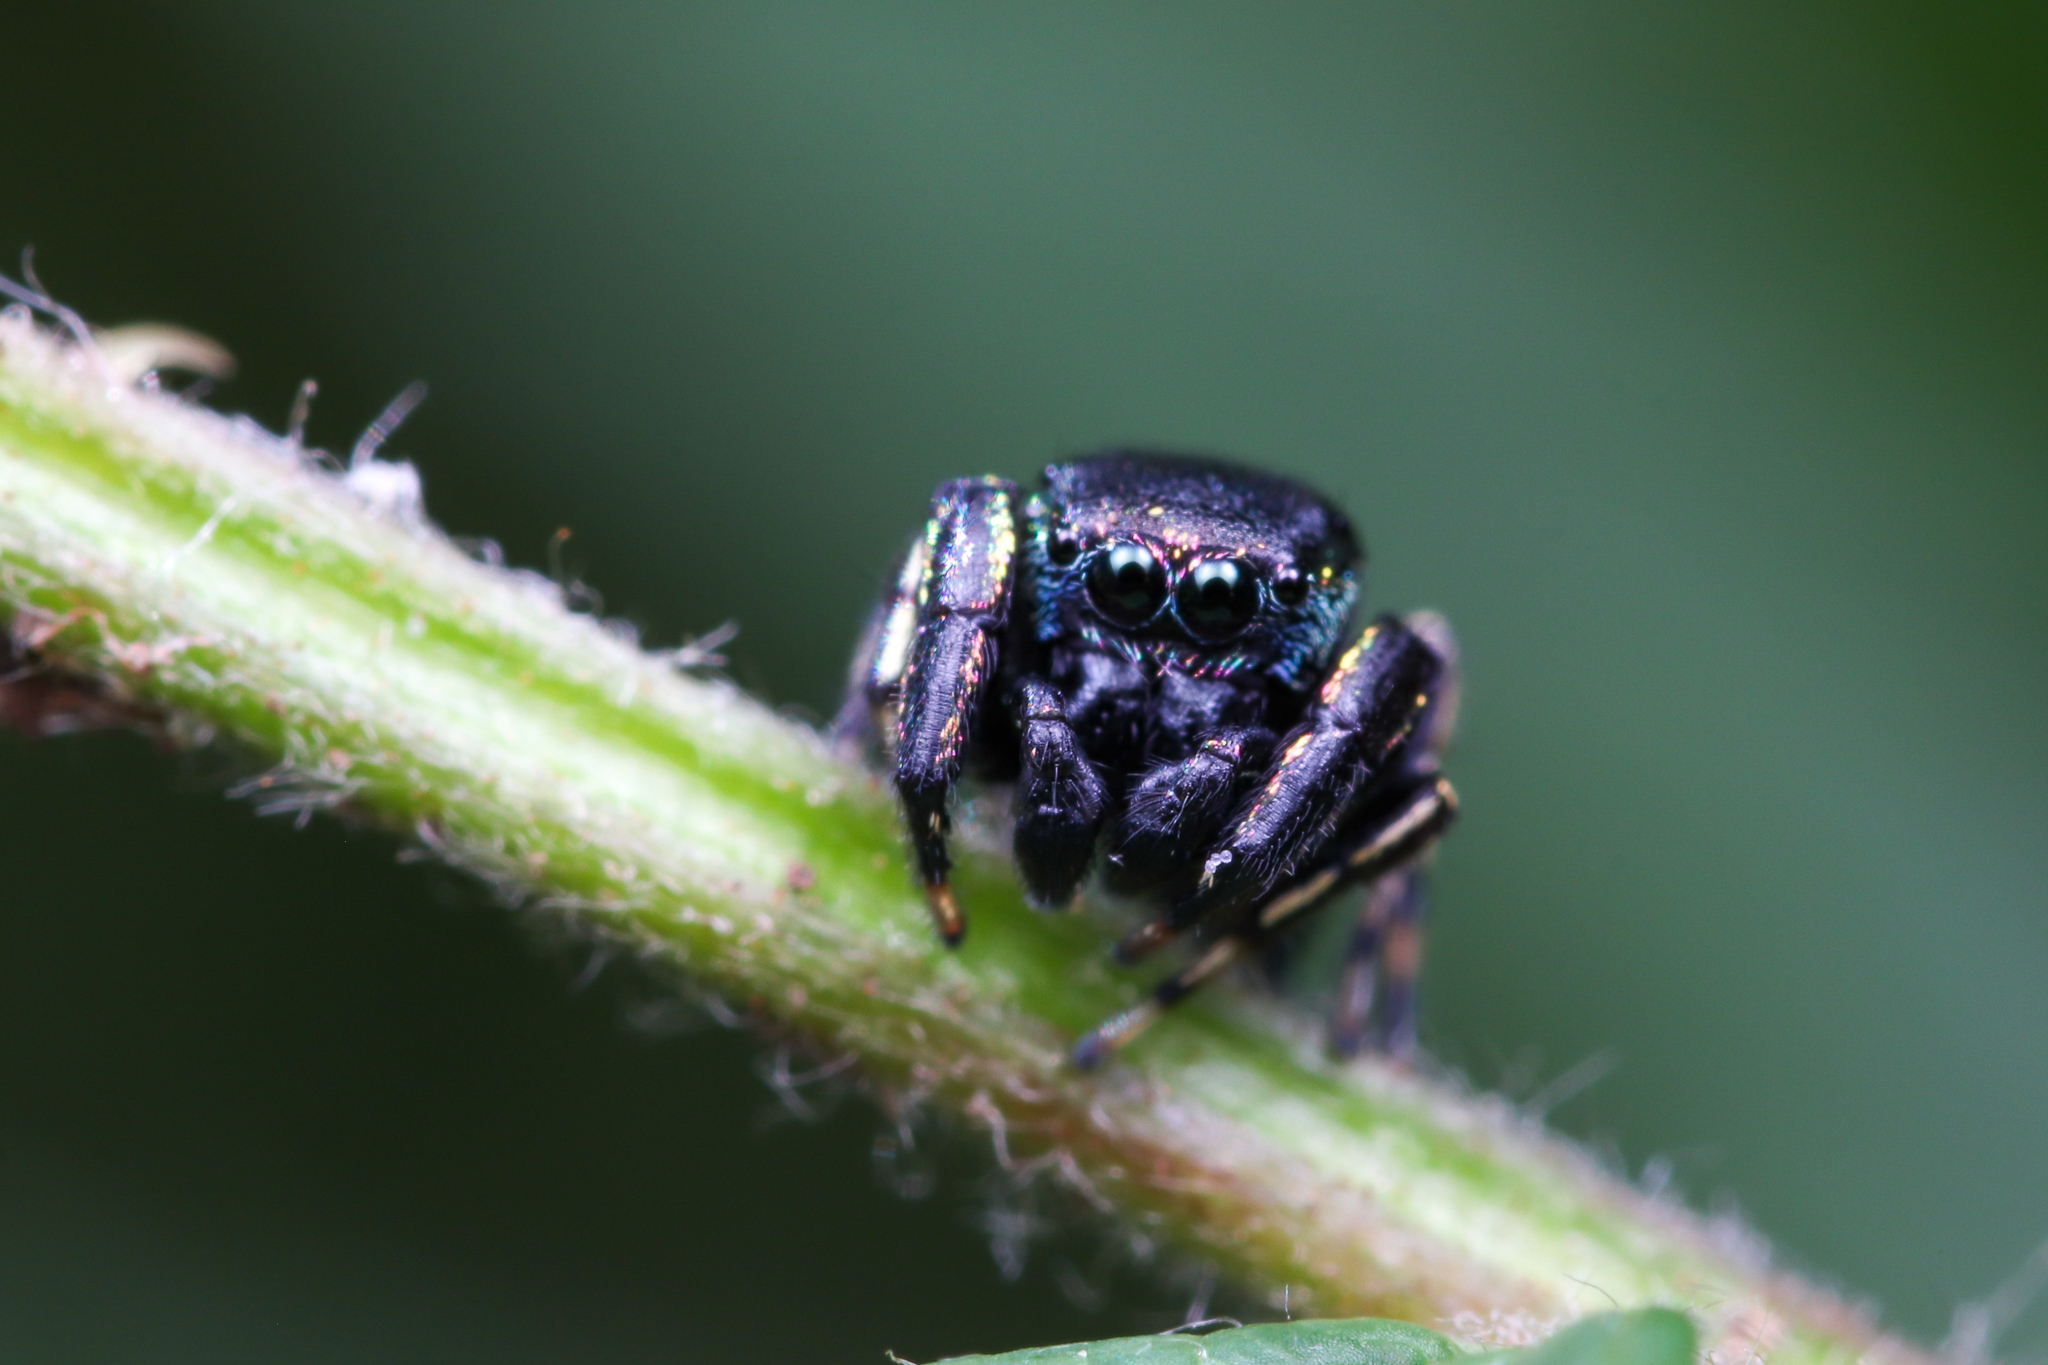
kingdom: Animalia
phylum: Arthropoda
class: Arachnida
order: Araneae
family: Salticidae
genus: Sassacus
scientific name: Sassacus papenhoei
